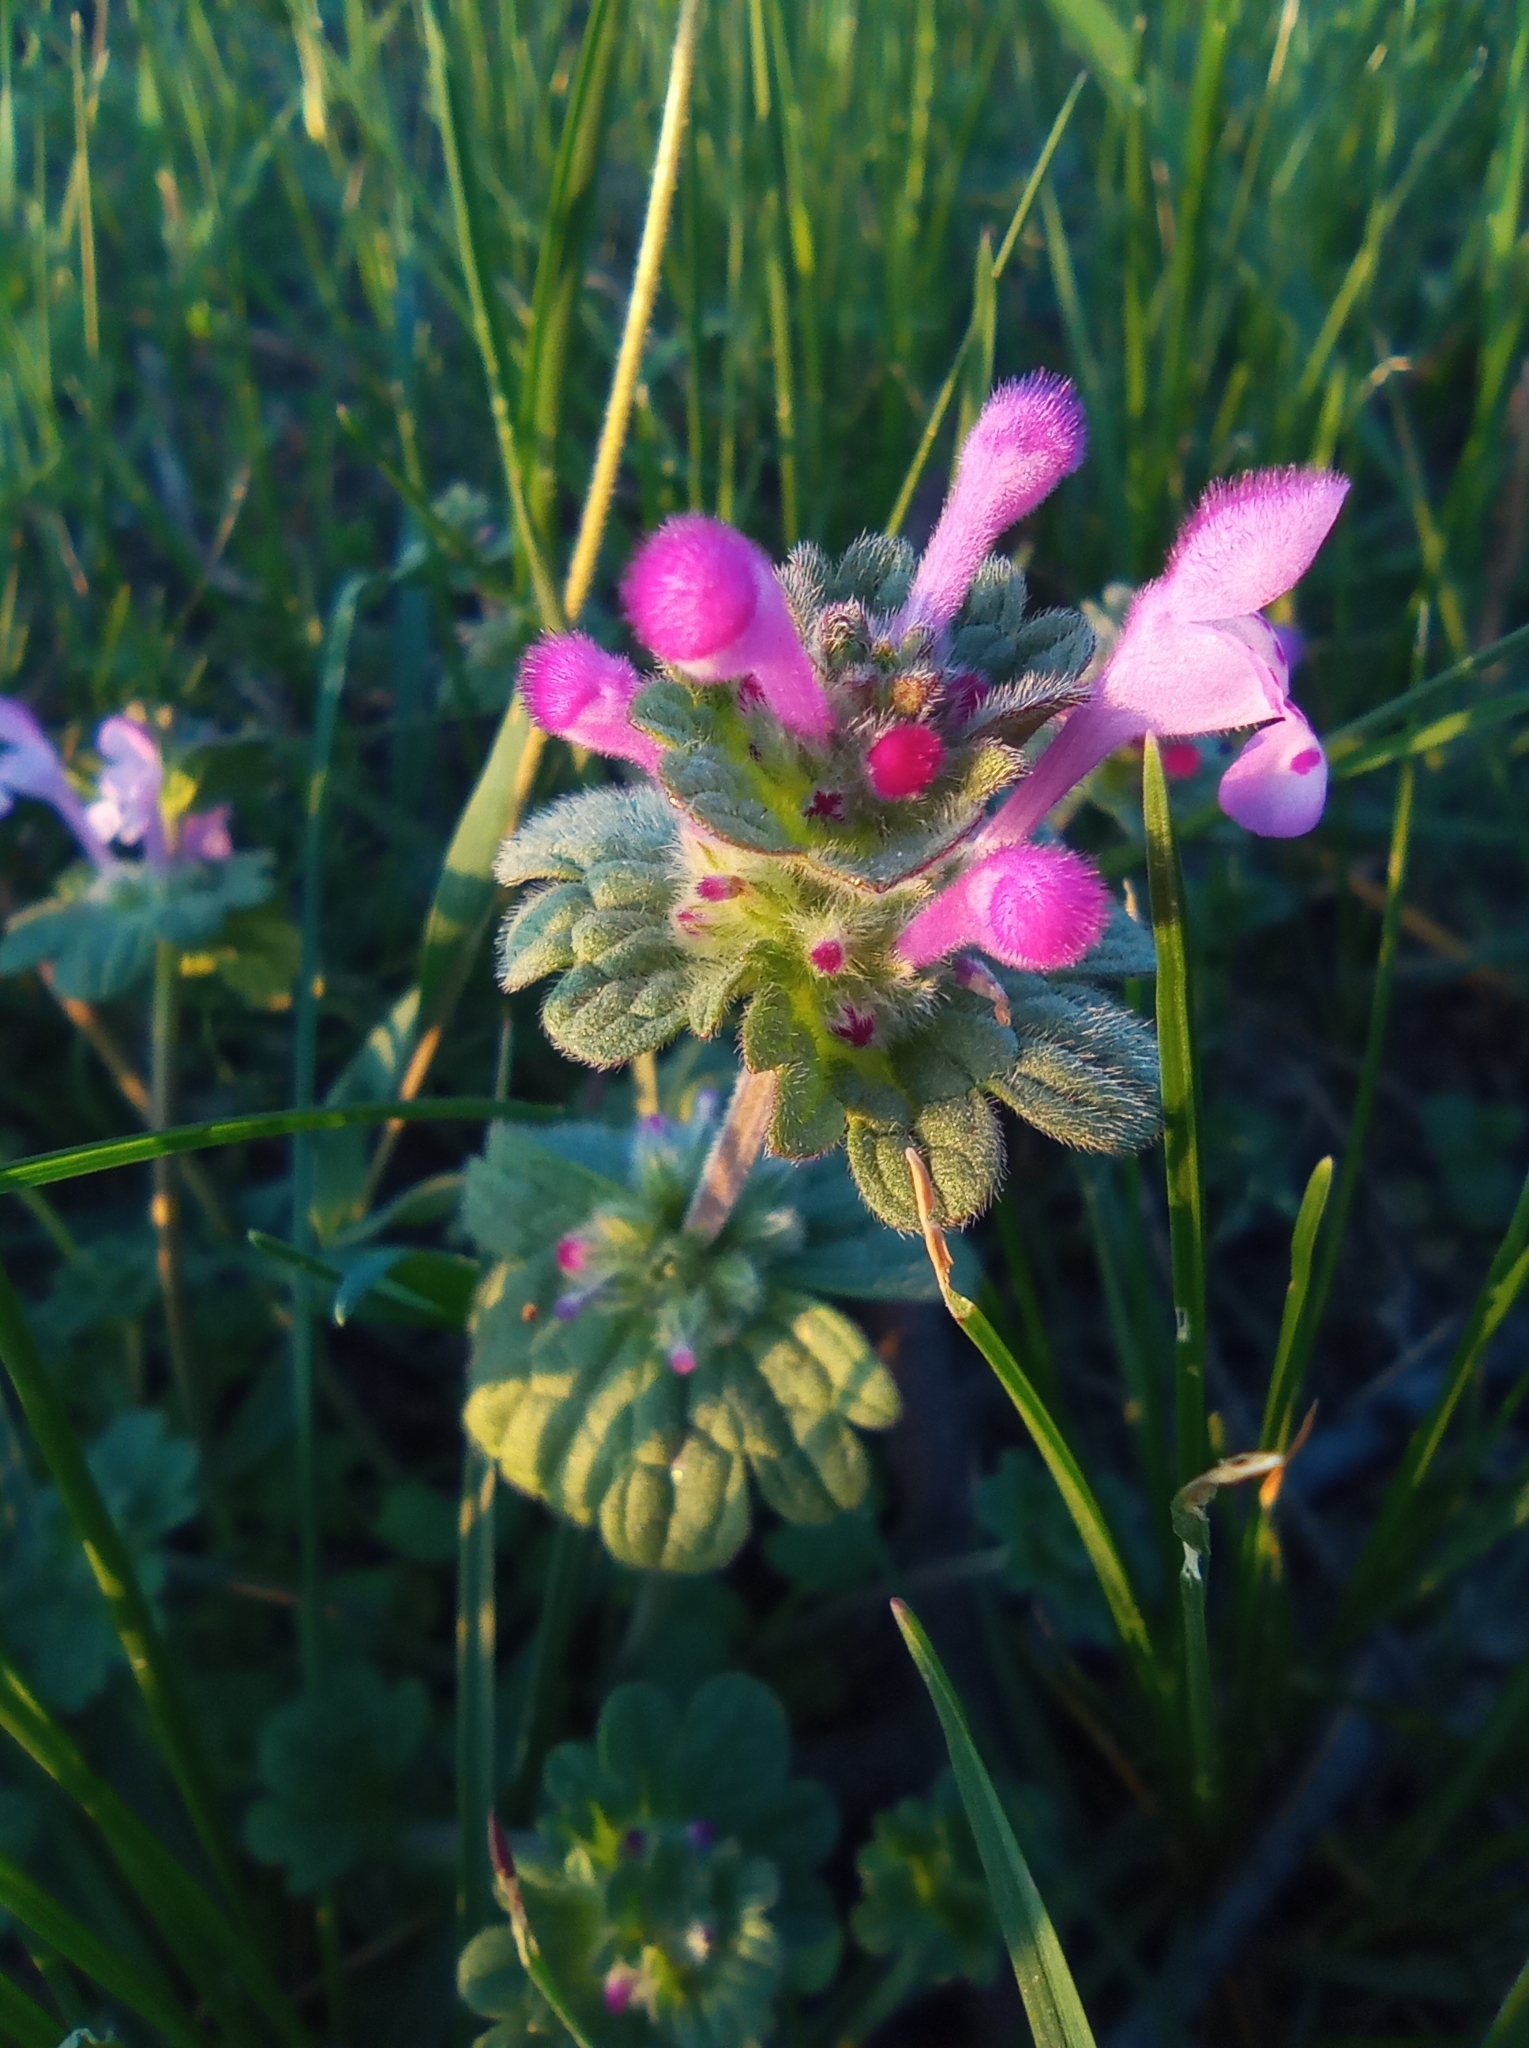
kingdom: Plantae
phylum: Tracheophyta
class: Magnoliopsida
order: Lamiales
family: Lamiaceae
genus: Lamium
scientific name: Lamium amplexicaule
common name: Henbit dead-nettle
